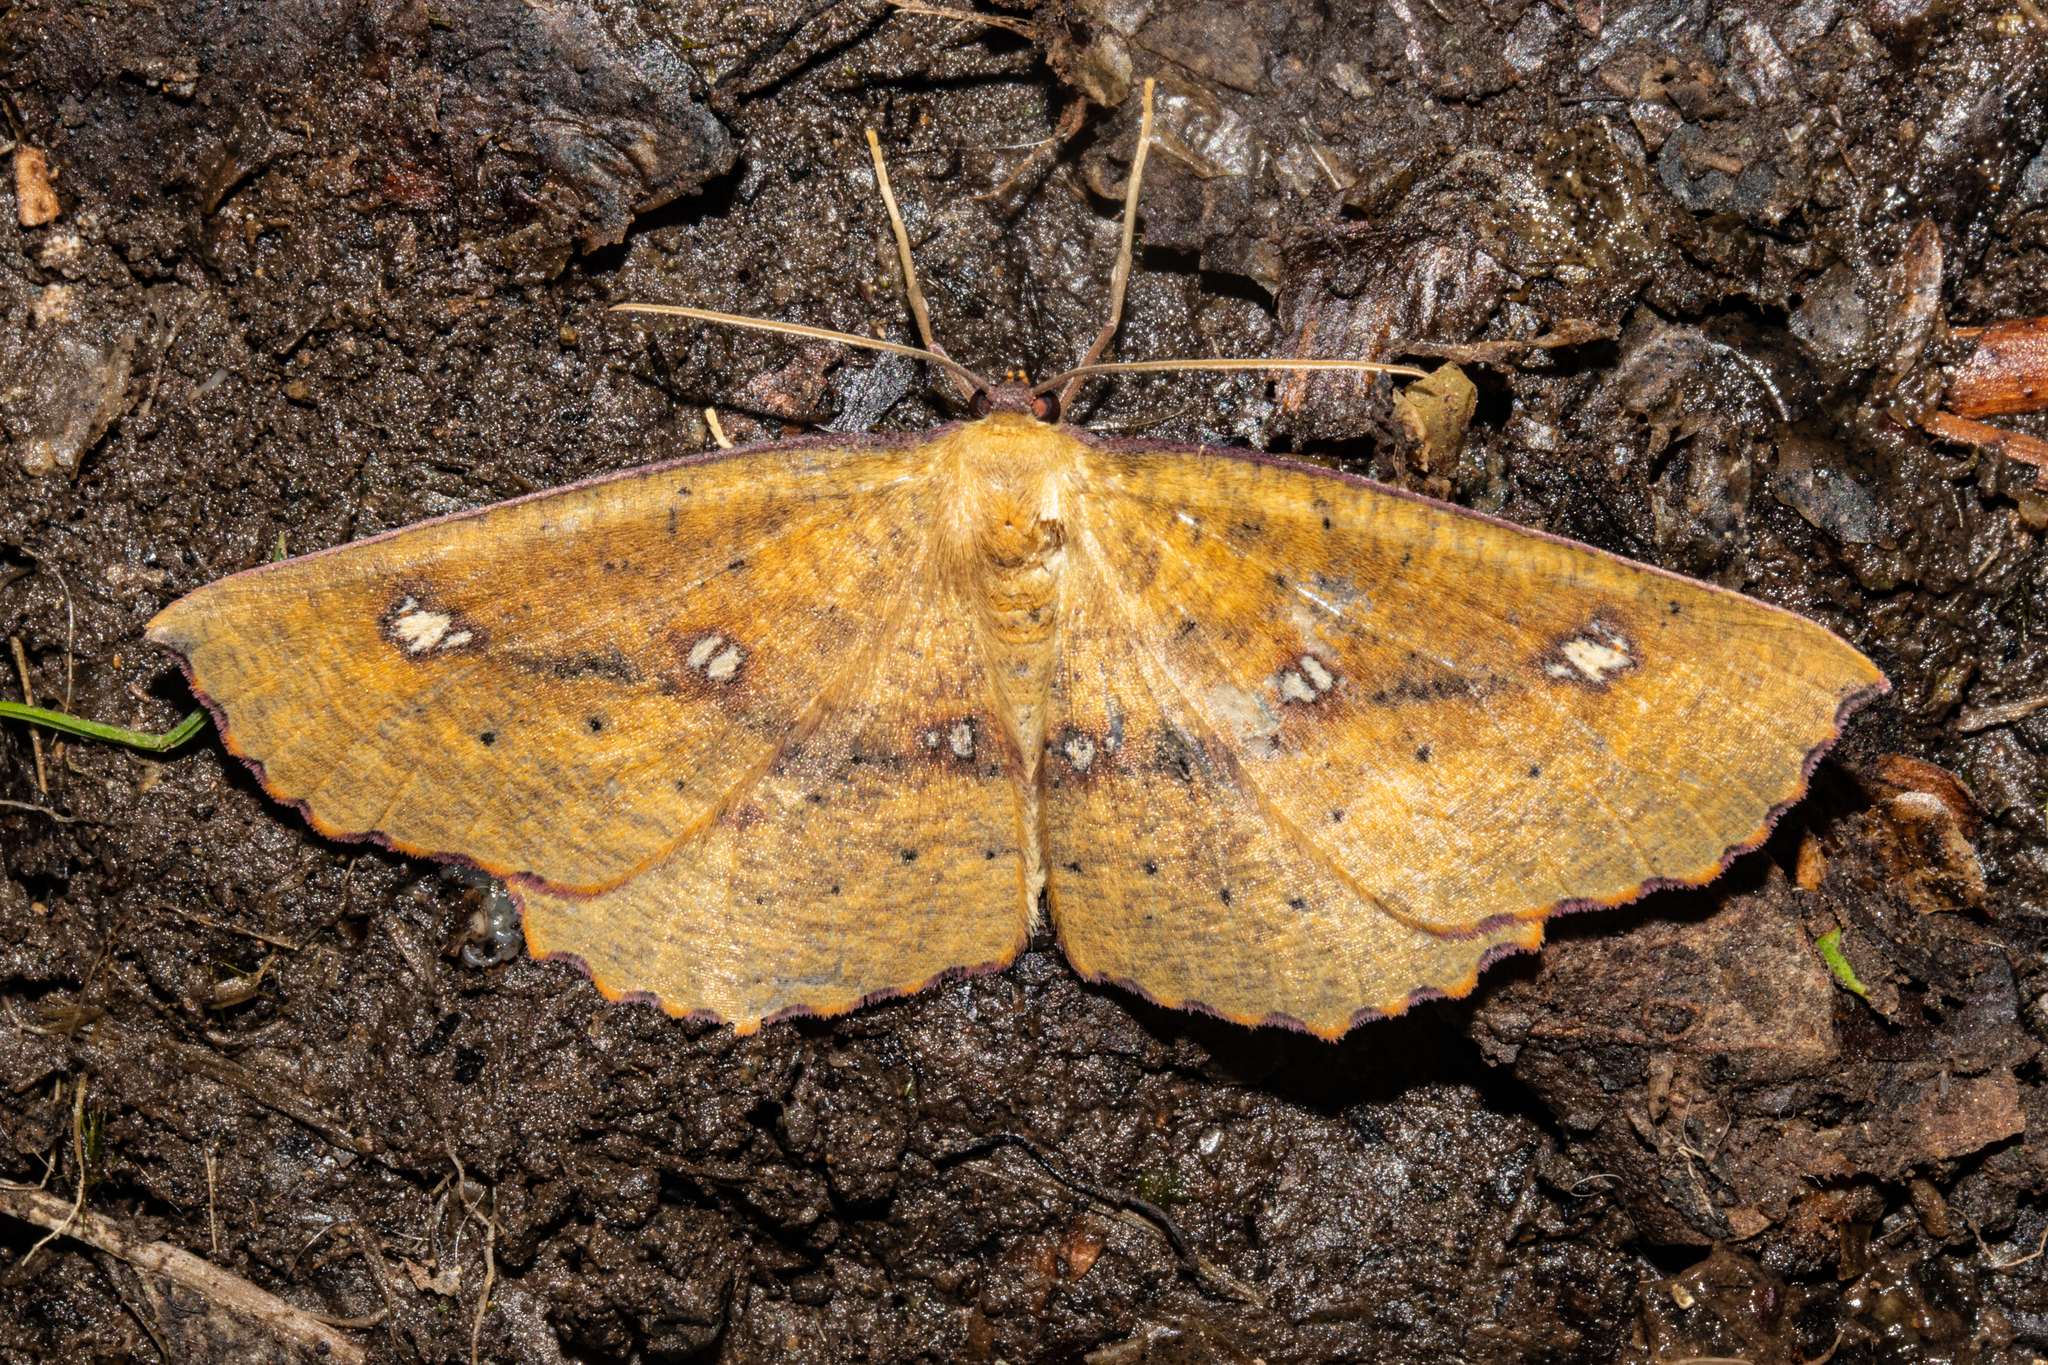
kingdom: Animalia
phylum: Arthropoda
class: Insecta
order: Lepidoptera
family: Geometridae
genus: Xyridacma
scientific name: Xyridacma alectoraria
